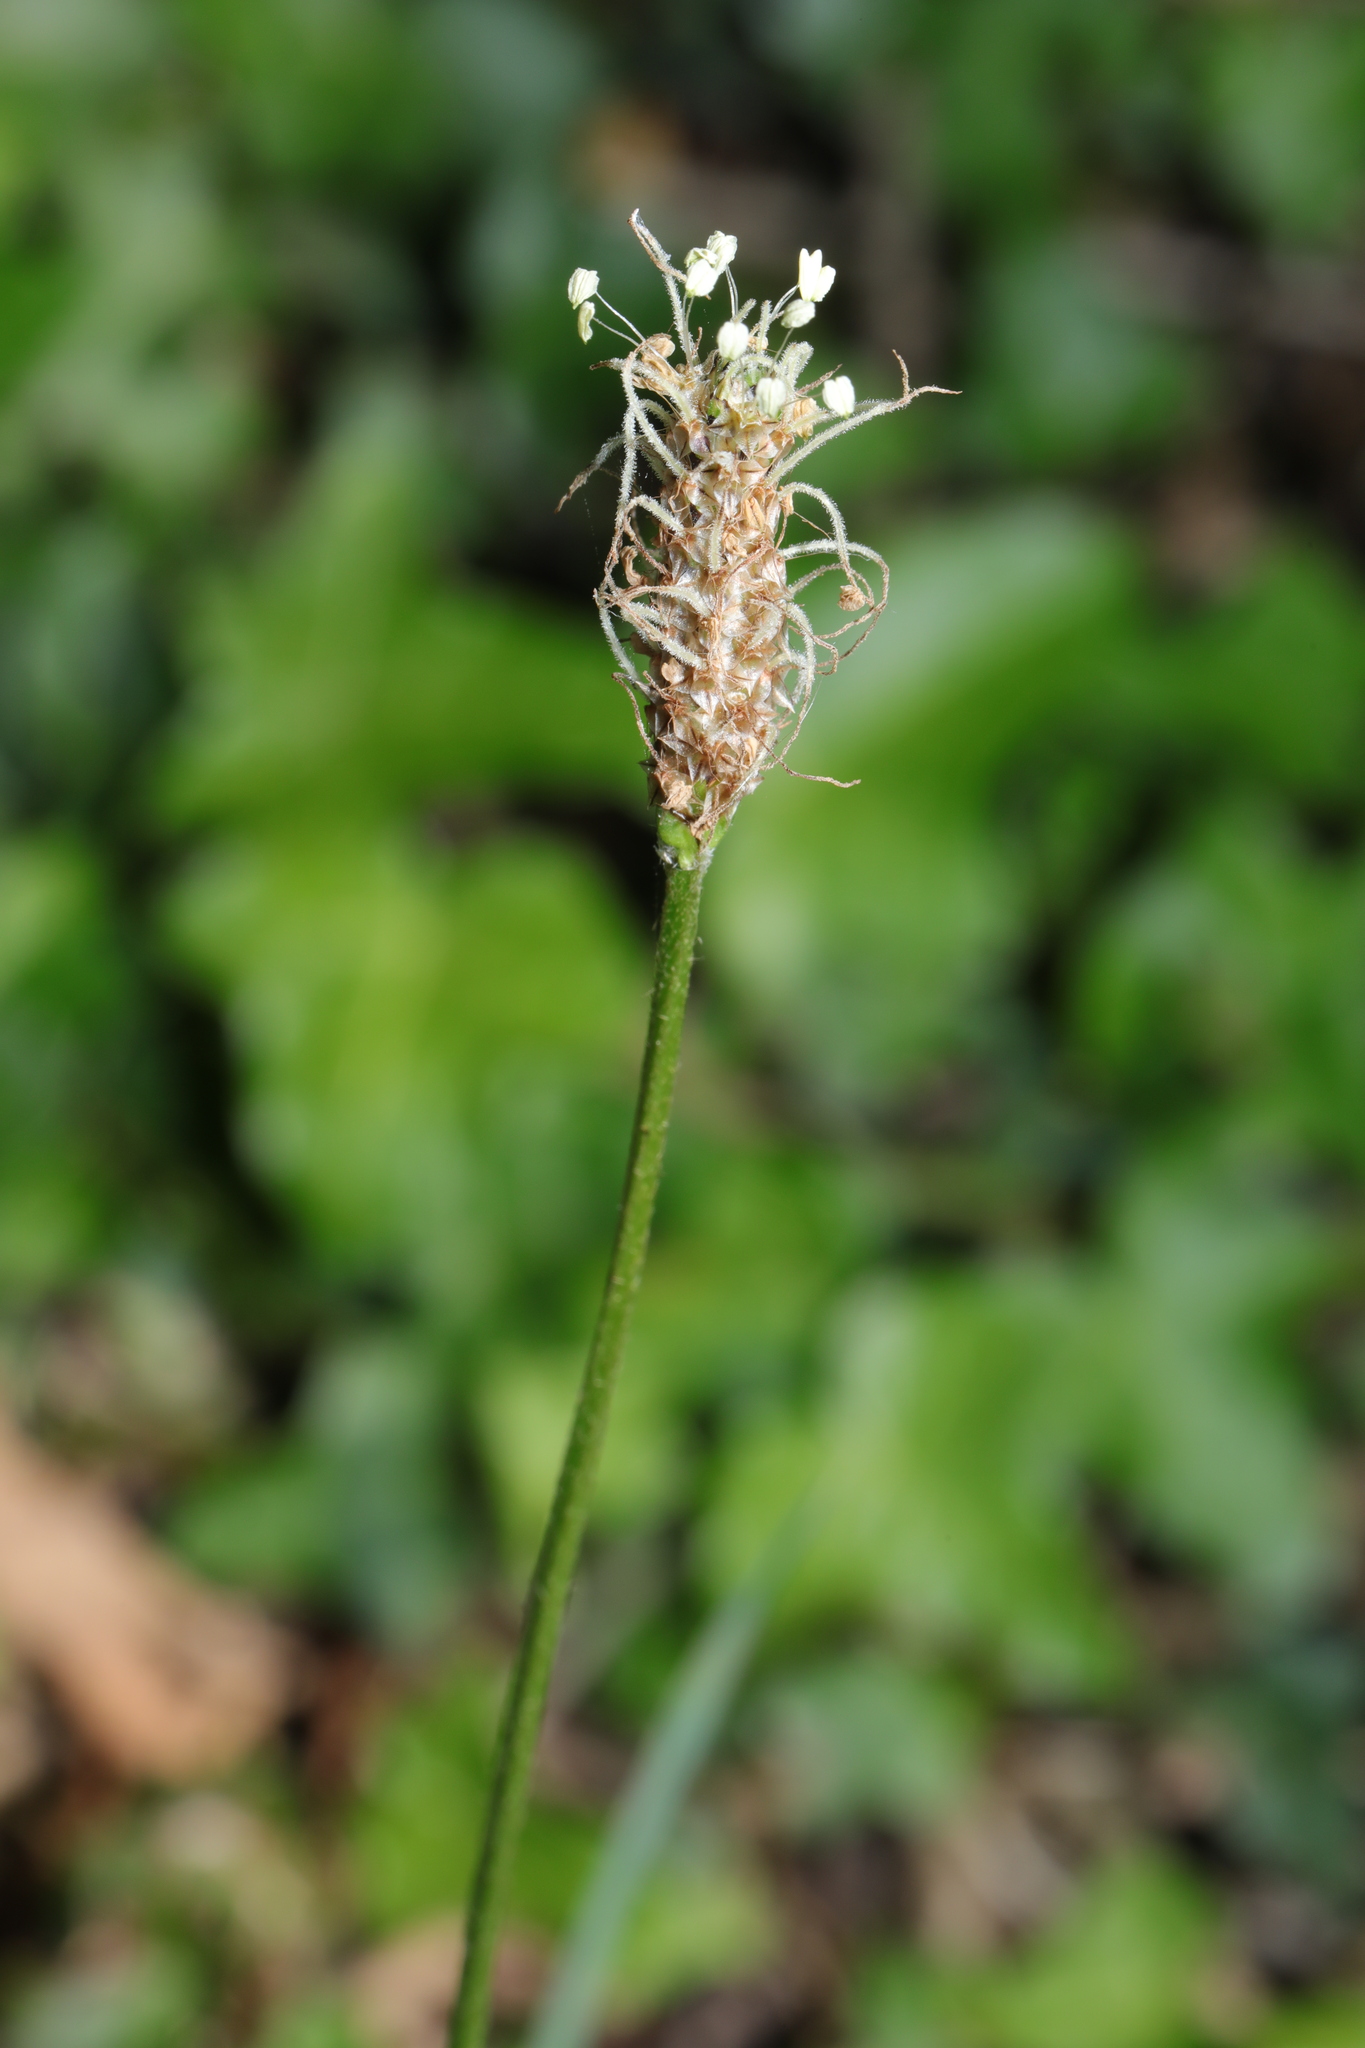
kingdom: Plantae
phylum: Tracheophyta
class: Magnoliopsida
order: Lamiales
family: Plantaginaceae
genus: Plantago
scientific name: Plantago lanceolata
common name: Ribwort plantain
